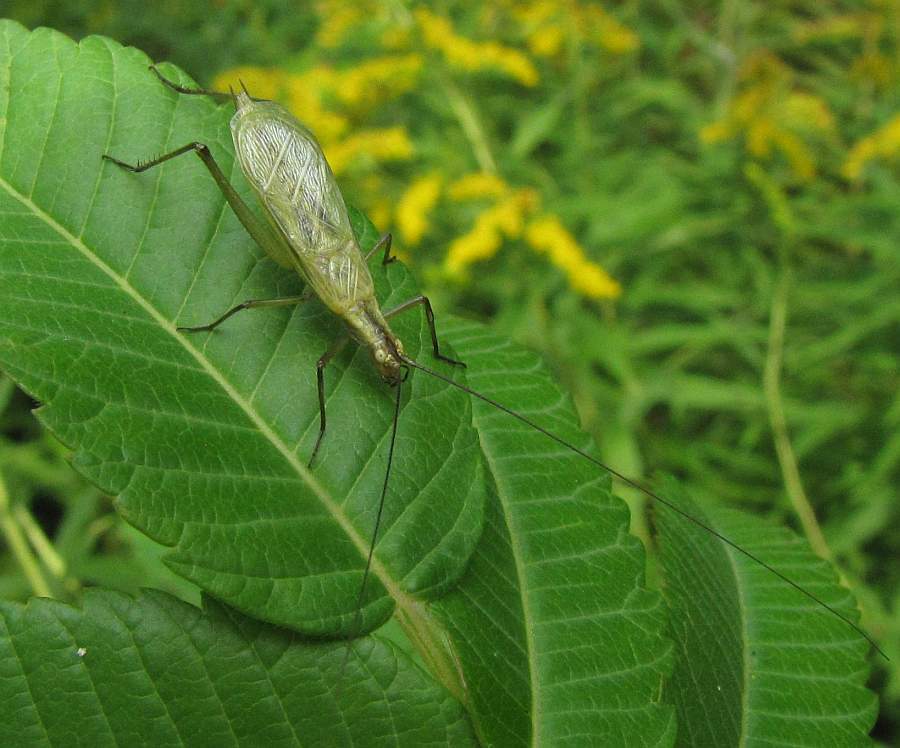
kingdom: Animalia
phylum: Arthropoda
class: Insecta
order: Orthoptera
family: Gryllidae
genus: Oecanthus
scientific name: Oecanthus nigricornis
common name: Black-horned tree cricket
